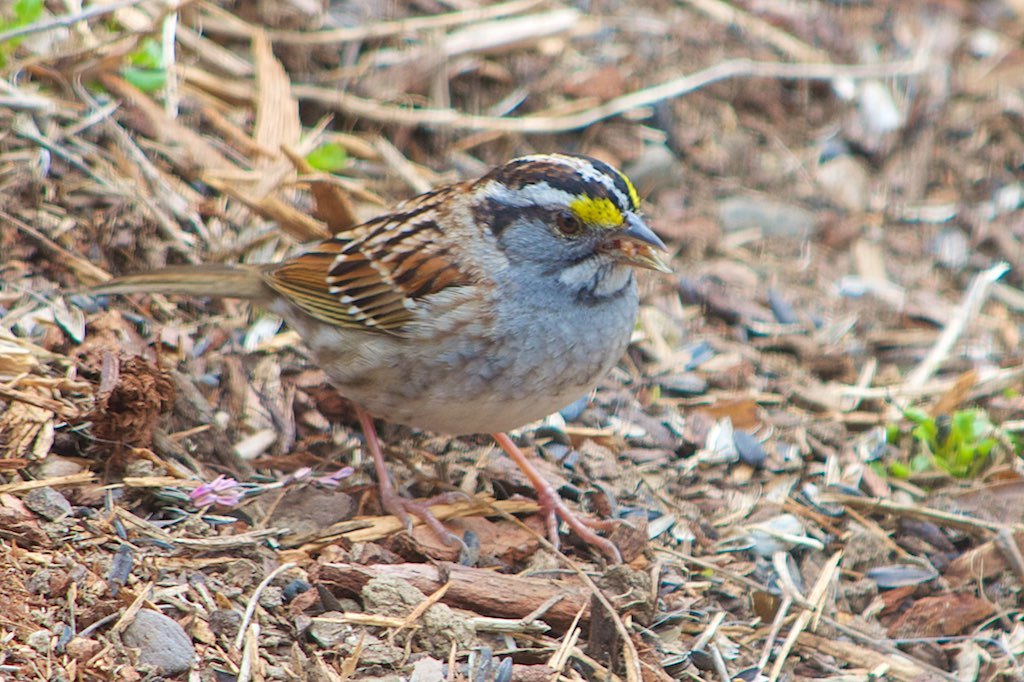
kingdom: Animalia
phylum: Chordata
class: Aves
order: Passeriformes
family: Passerellidae
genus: Zonotrichia
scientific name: Zonotrichia albicollis
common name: White-throated sparrow
